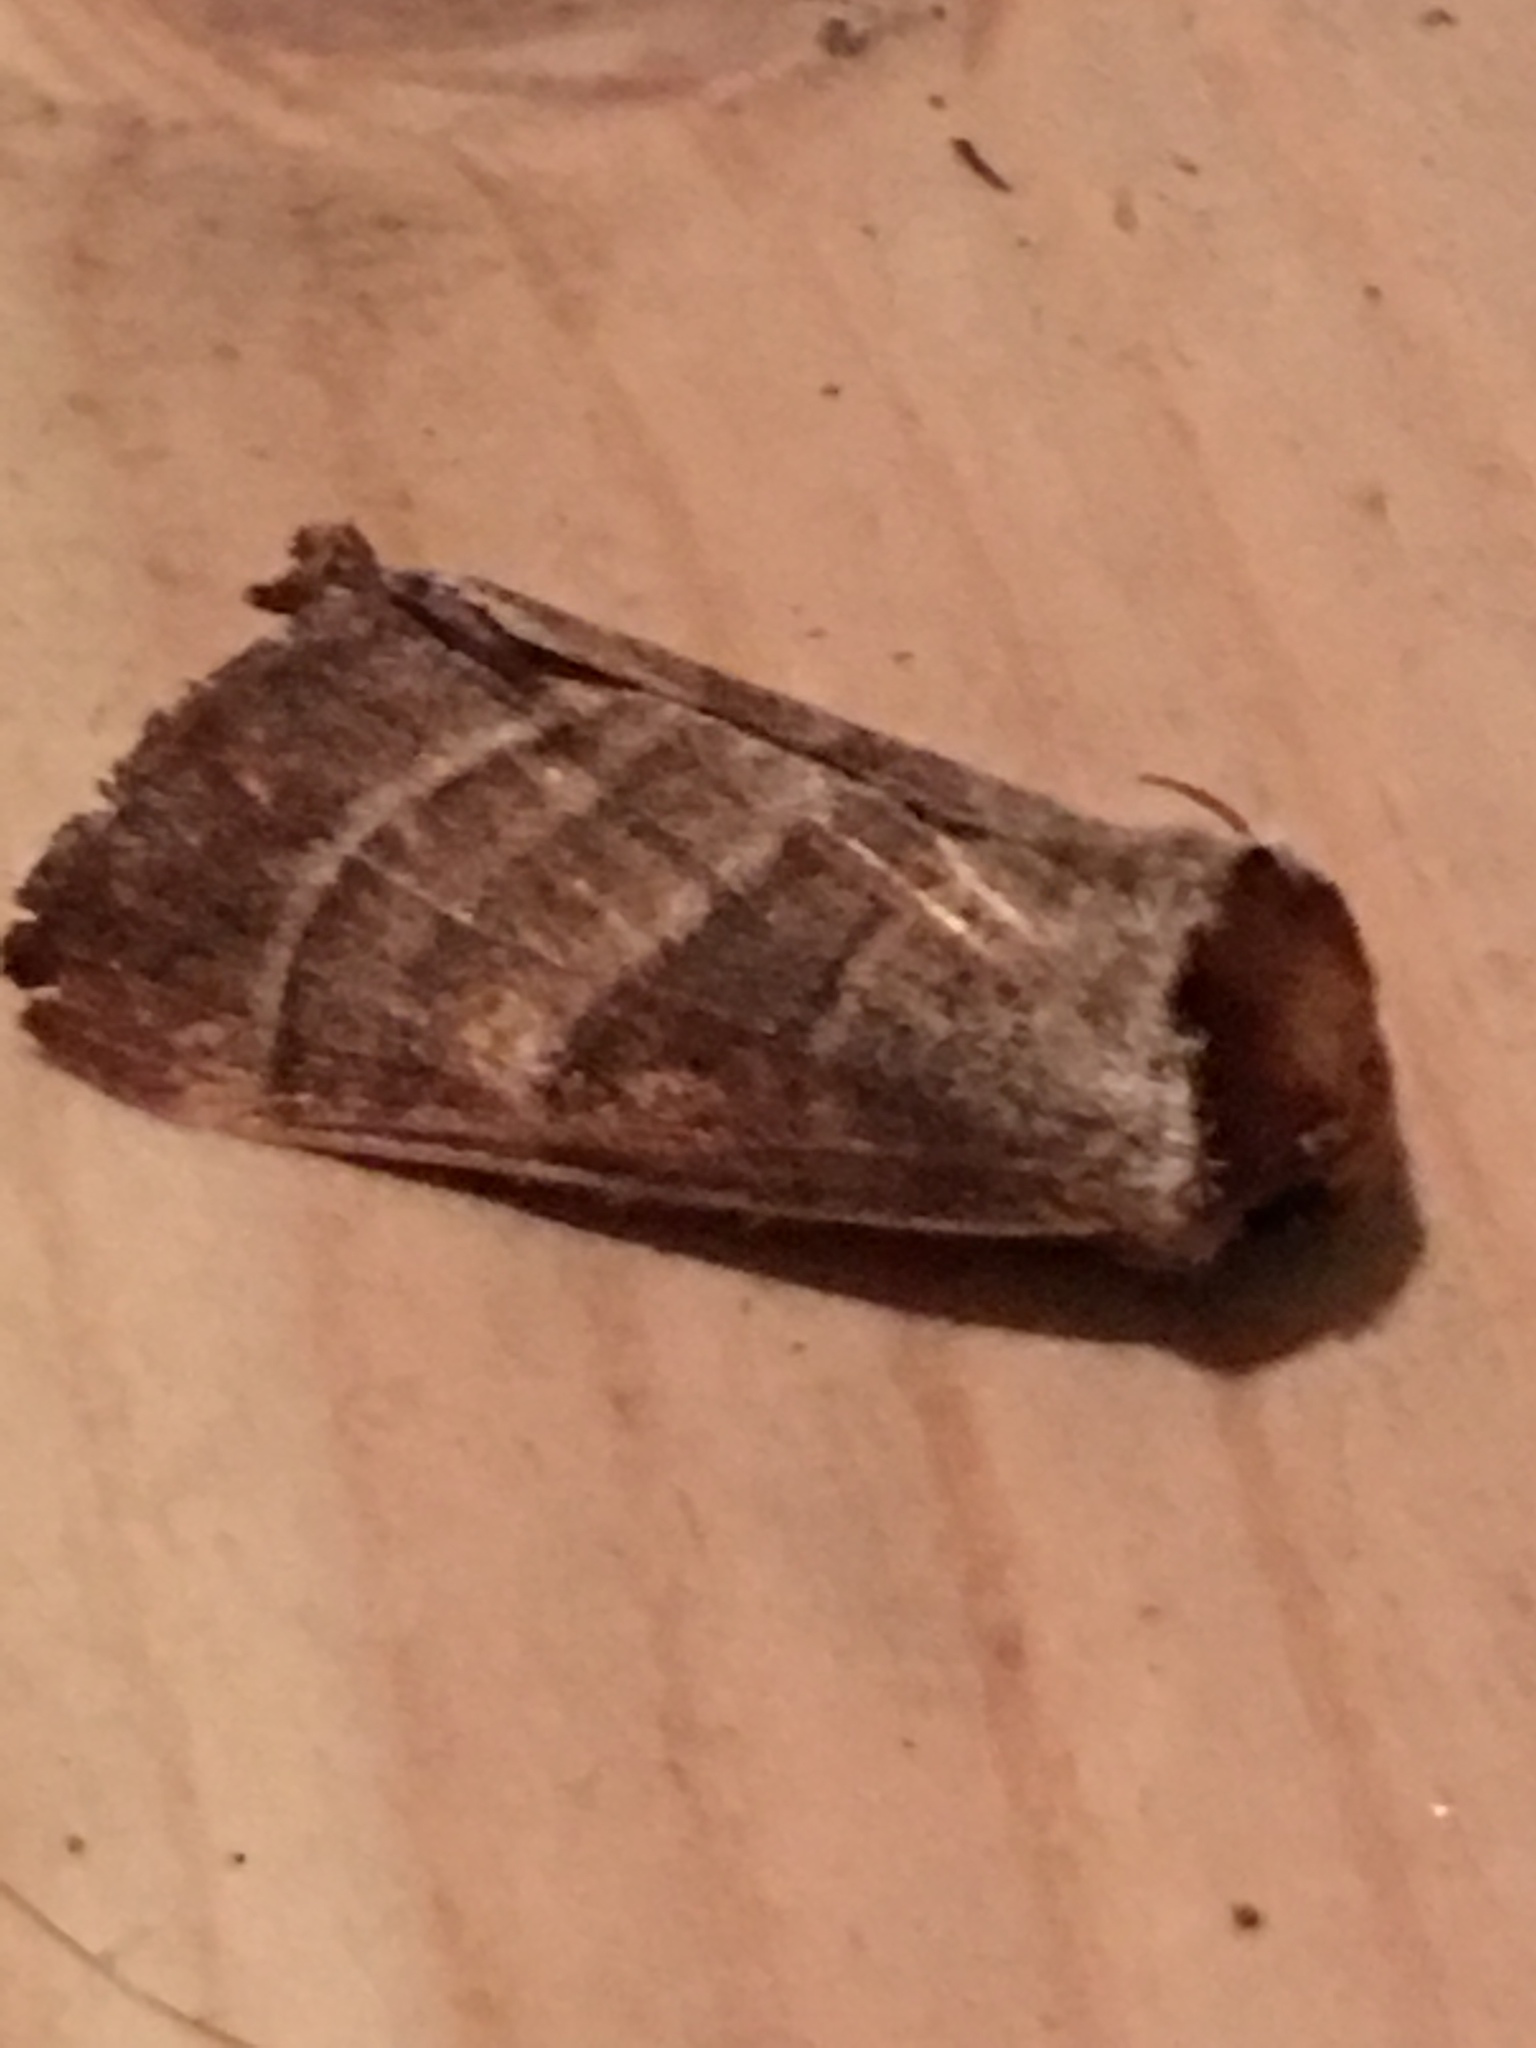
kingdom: Animalia
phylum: Arthropoda
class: Insecta
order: Lepidoptera
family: Notodontidae
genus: Datana
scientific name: Datana integerrima
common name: Walnut caterpillar
